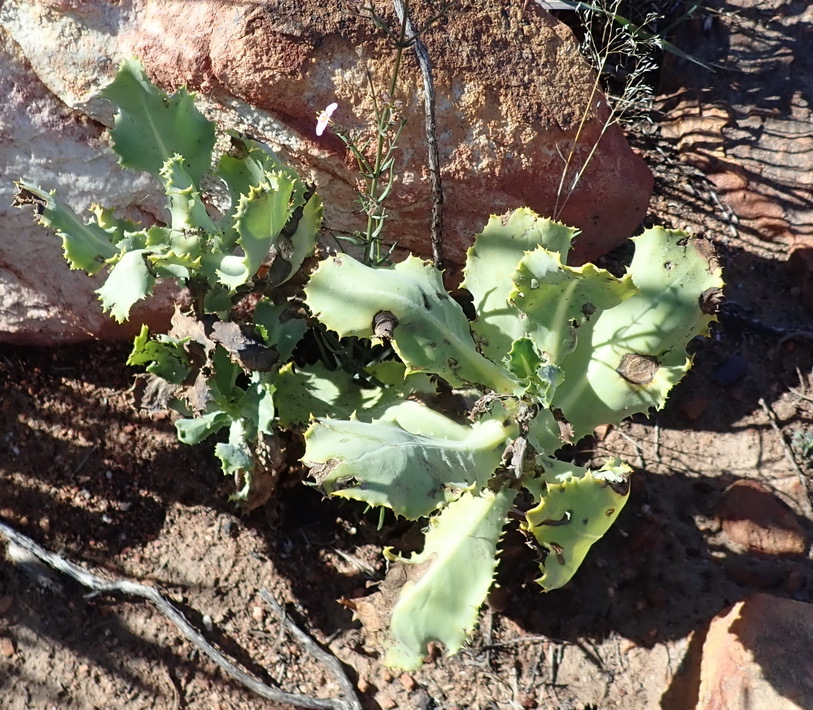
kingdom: Plantae
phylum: Tracheophyta
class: Magnoliopsida
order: Asterales
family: Asteraceae
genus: Othonna
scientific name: Othonna parviflora
